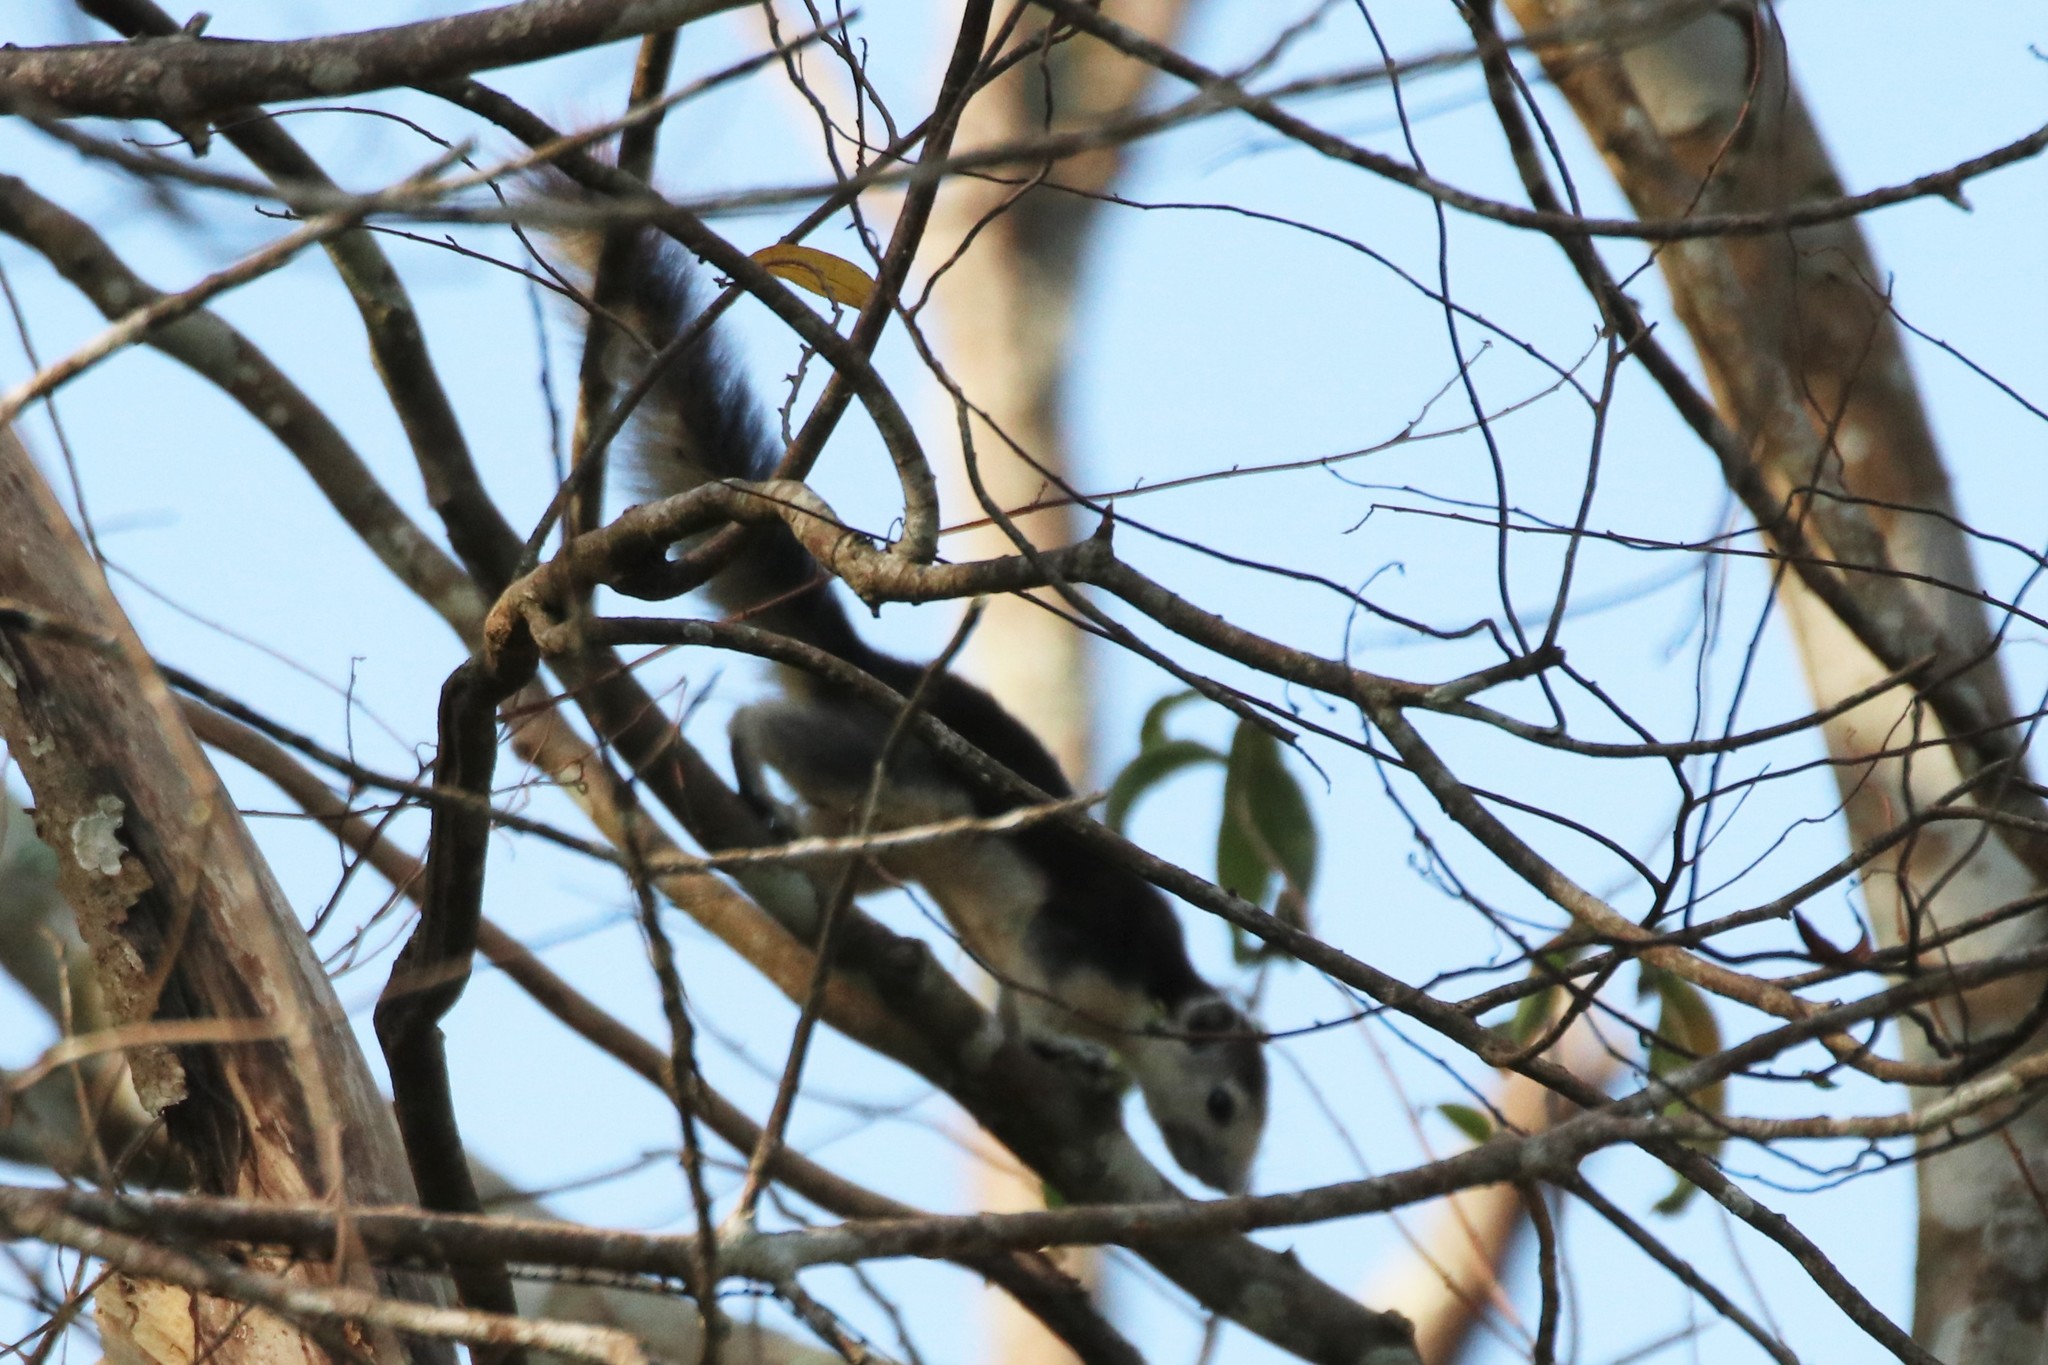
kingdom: Animalia
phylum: Chordata
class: Mammalia
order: Rodentia
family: Sciuridae
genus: Callosciurus
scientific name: Callosciurus finlaysonii
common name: Finlayson's squirrel
